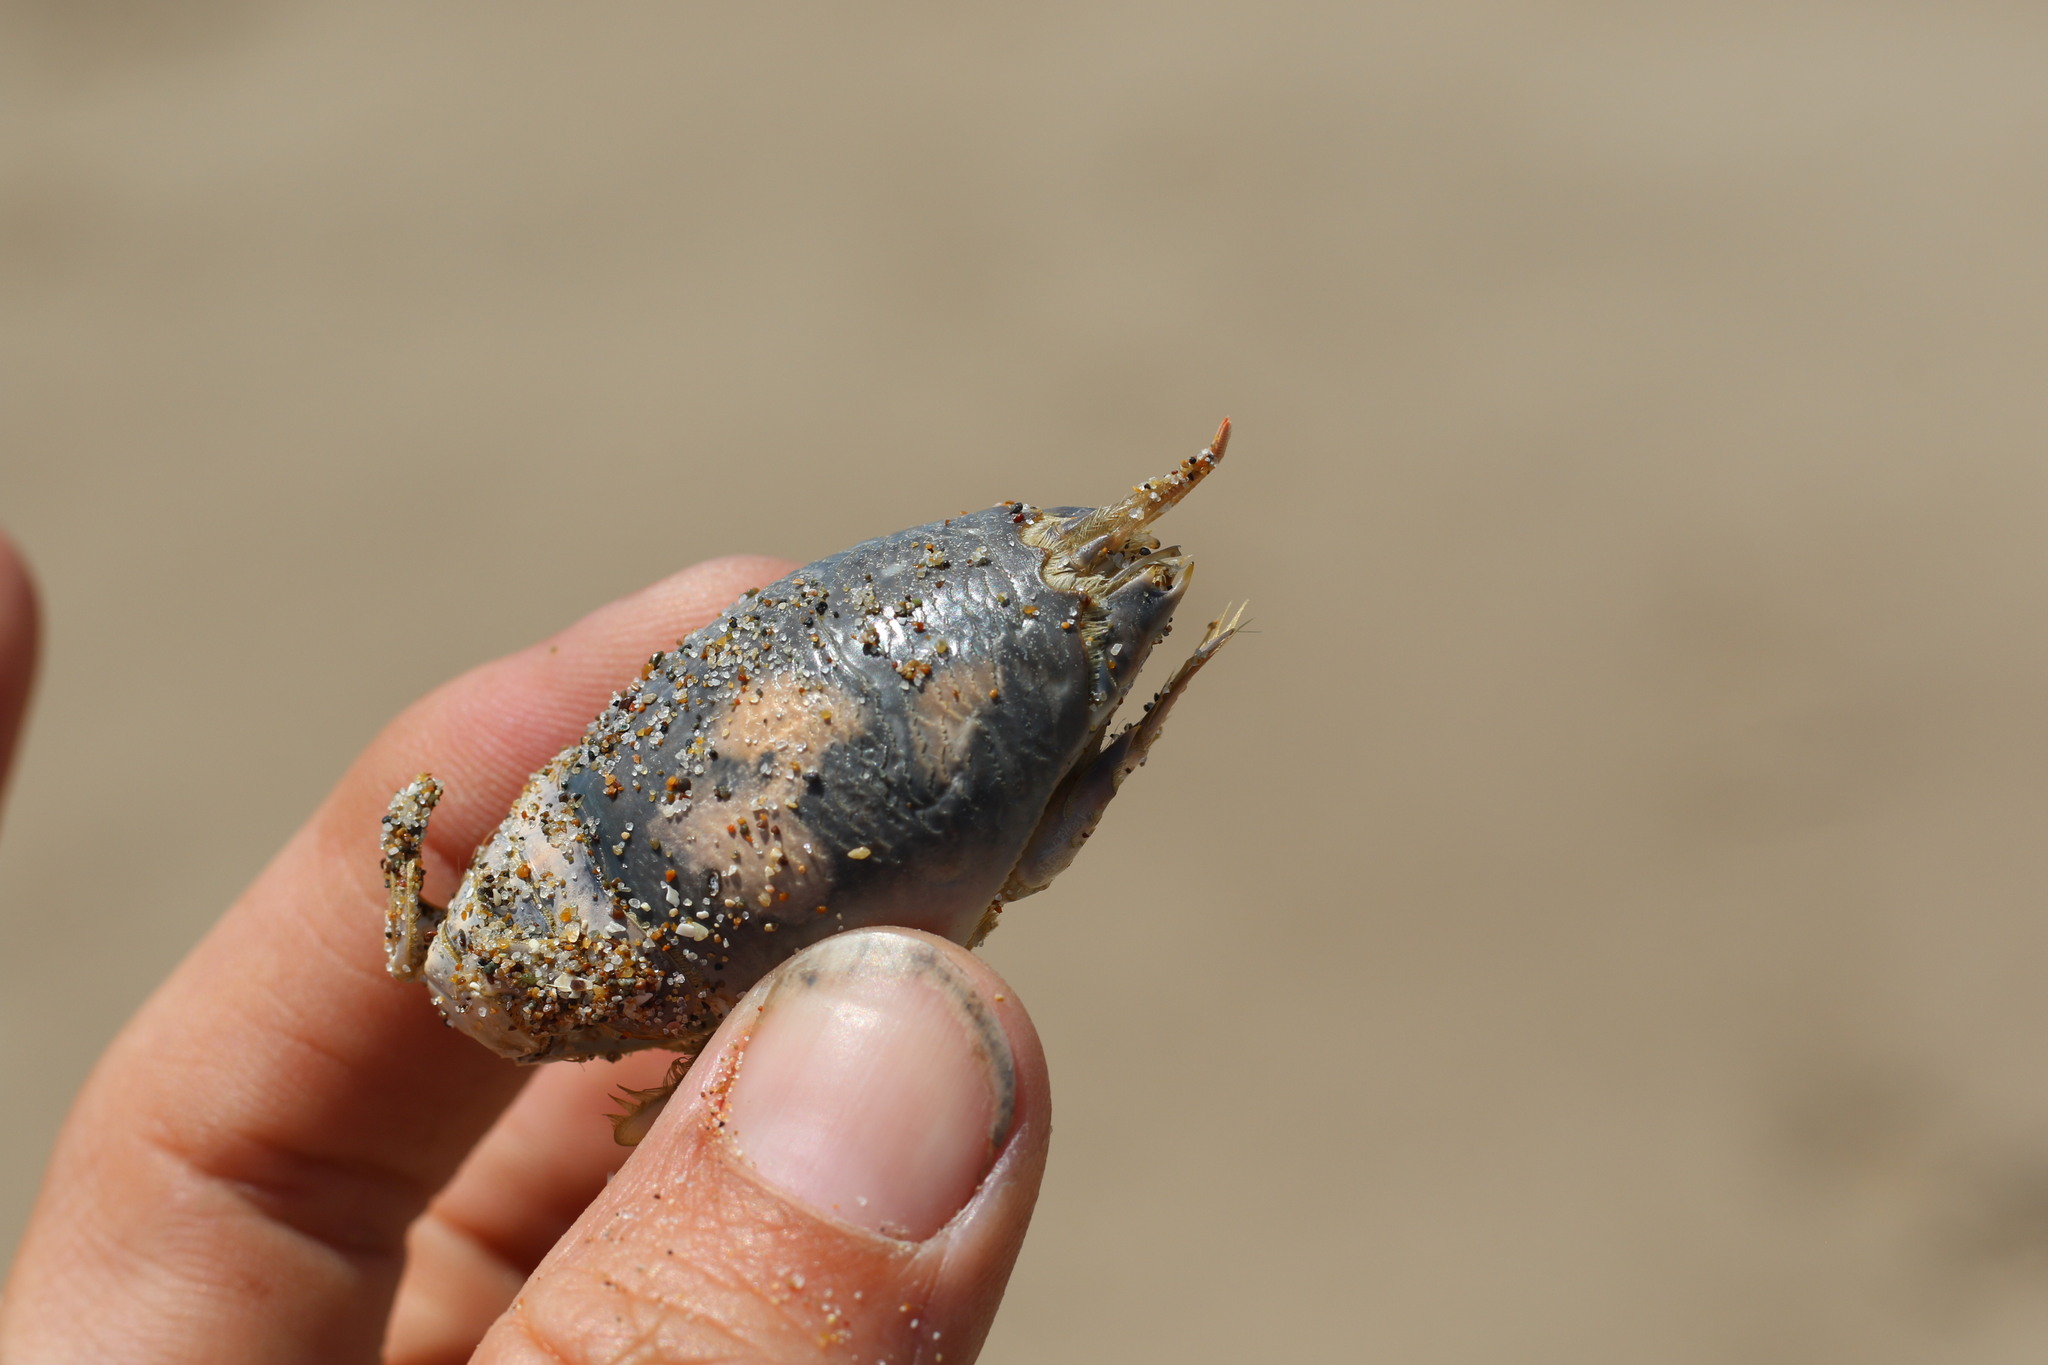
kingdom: Animalia
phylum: Arthropoda
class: Malacostraca
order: Decapoda
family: Hippidae
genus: Emerita
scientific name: Emerita analoga
